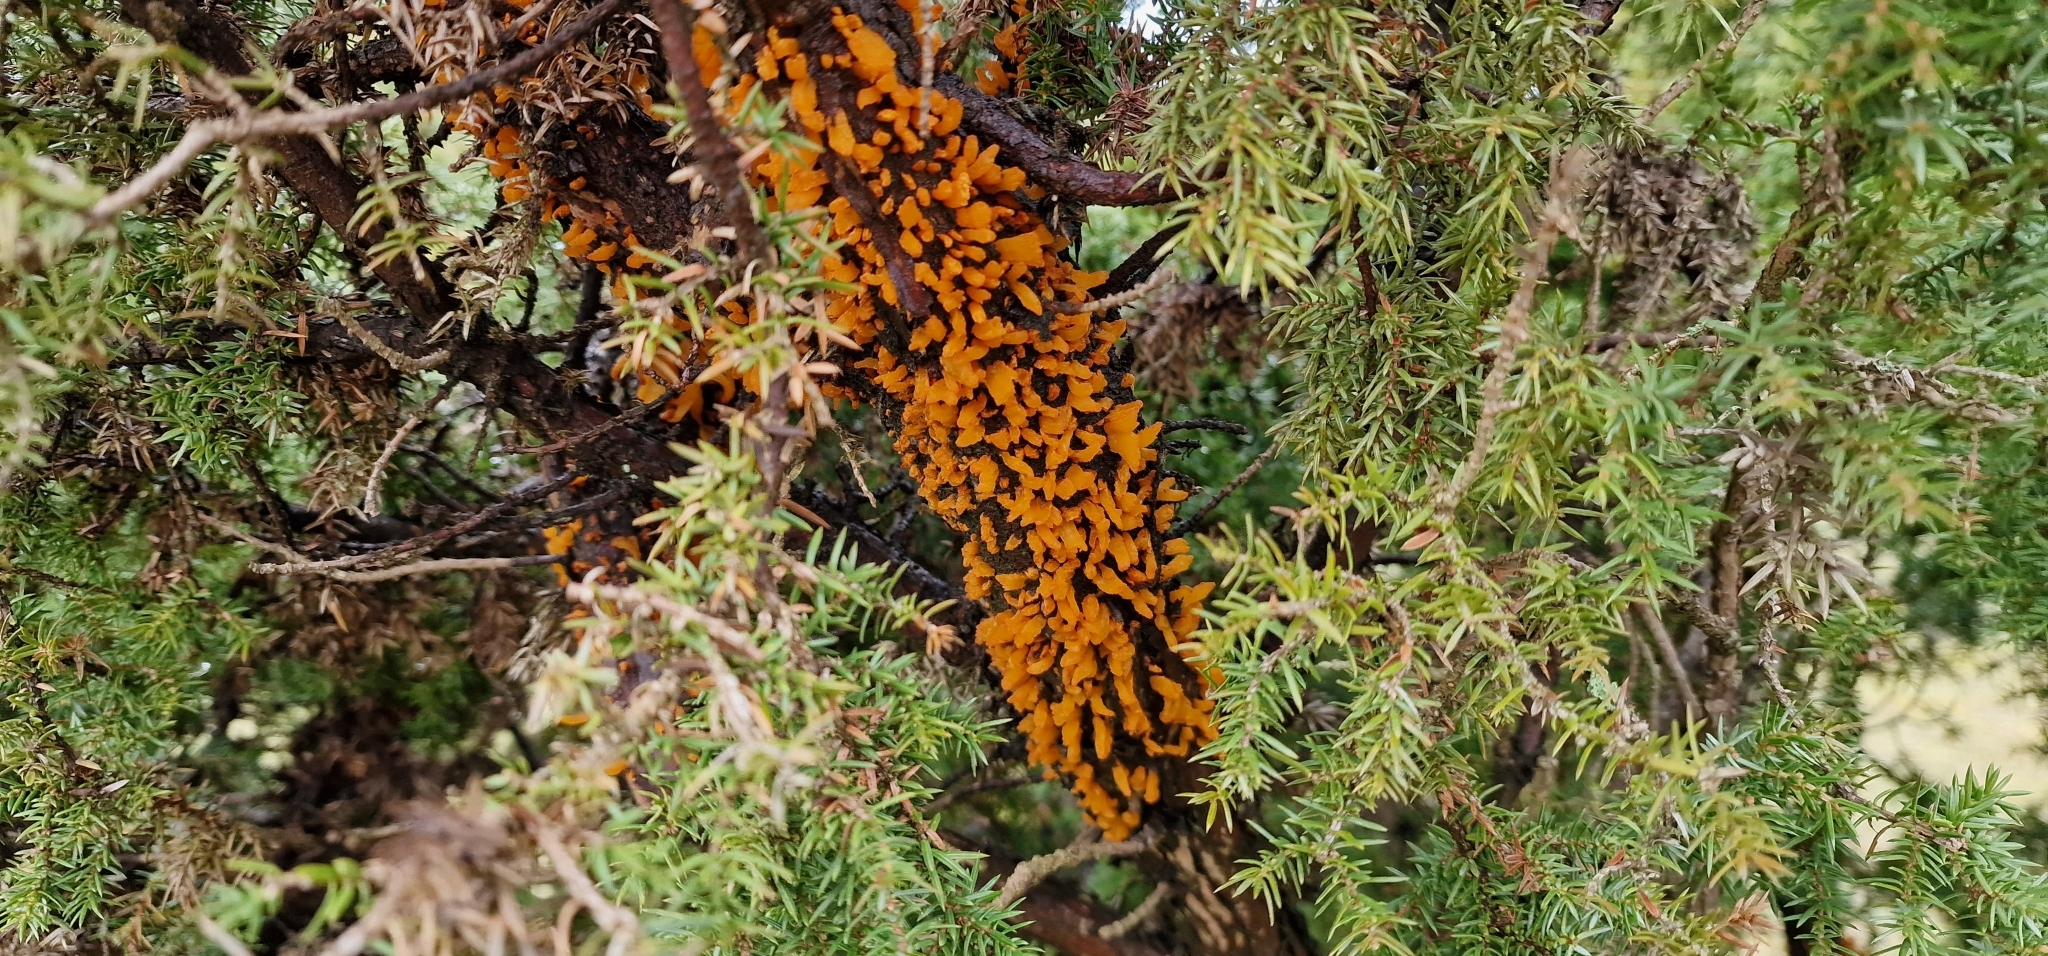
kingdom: Fungi
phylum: Basidiomycota
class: Pucciniomycetes
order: Pucciniales
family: Gymnosporangiaceae
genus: Gymnosporangium
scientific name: Gymnosporangium clavariiforme
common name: Tongues of fire
